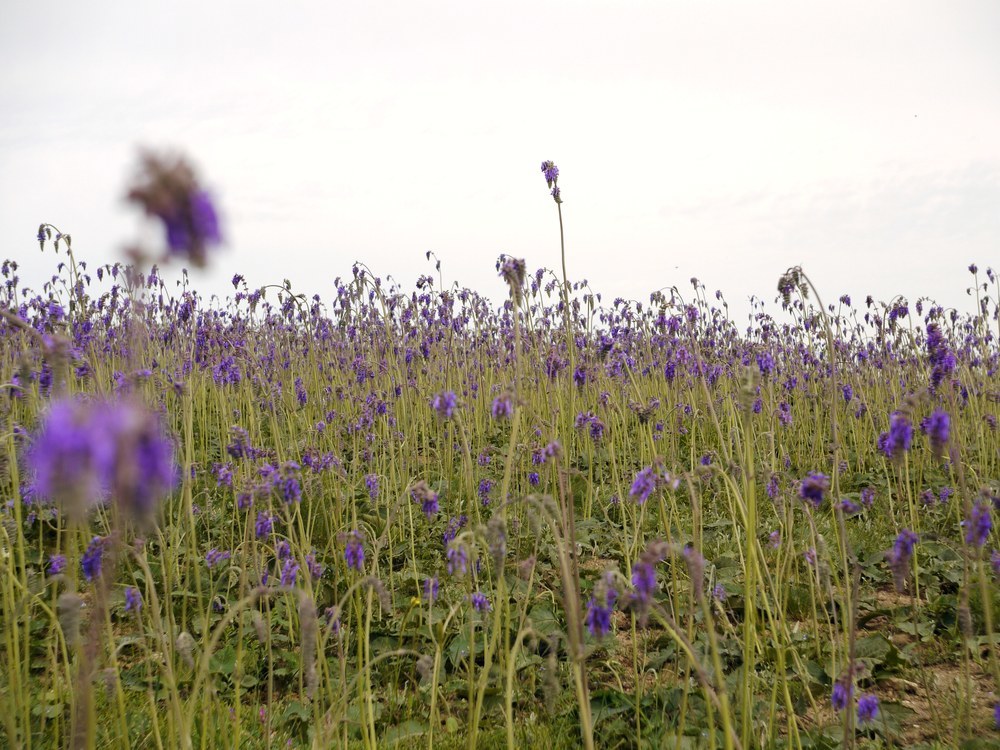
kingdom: Plantae
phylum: Tracheophyta
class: Magnoliopsida
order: Lamiales
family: Lamiaceae
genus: Salvia
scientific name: Salvia nutans
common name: Nodding sage
